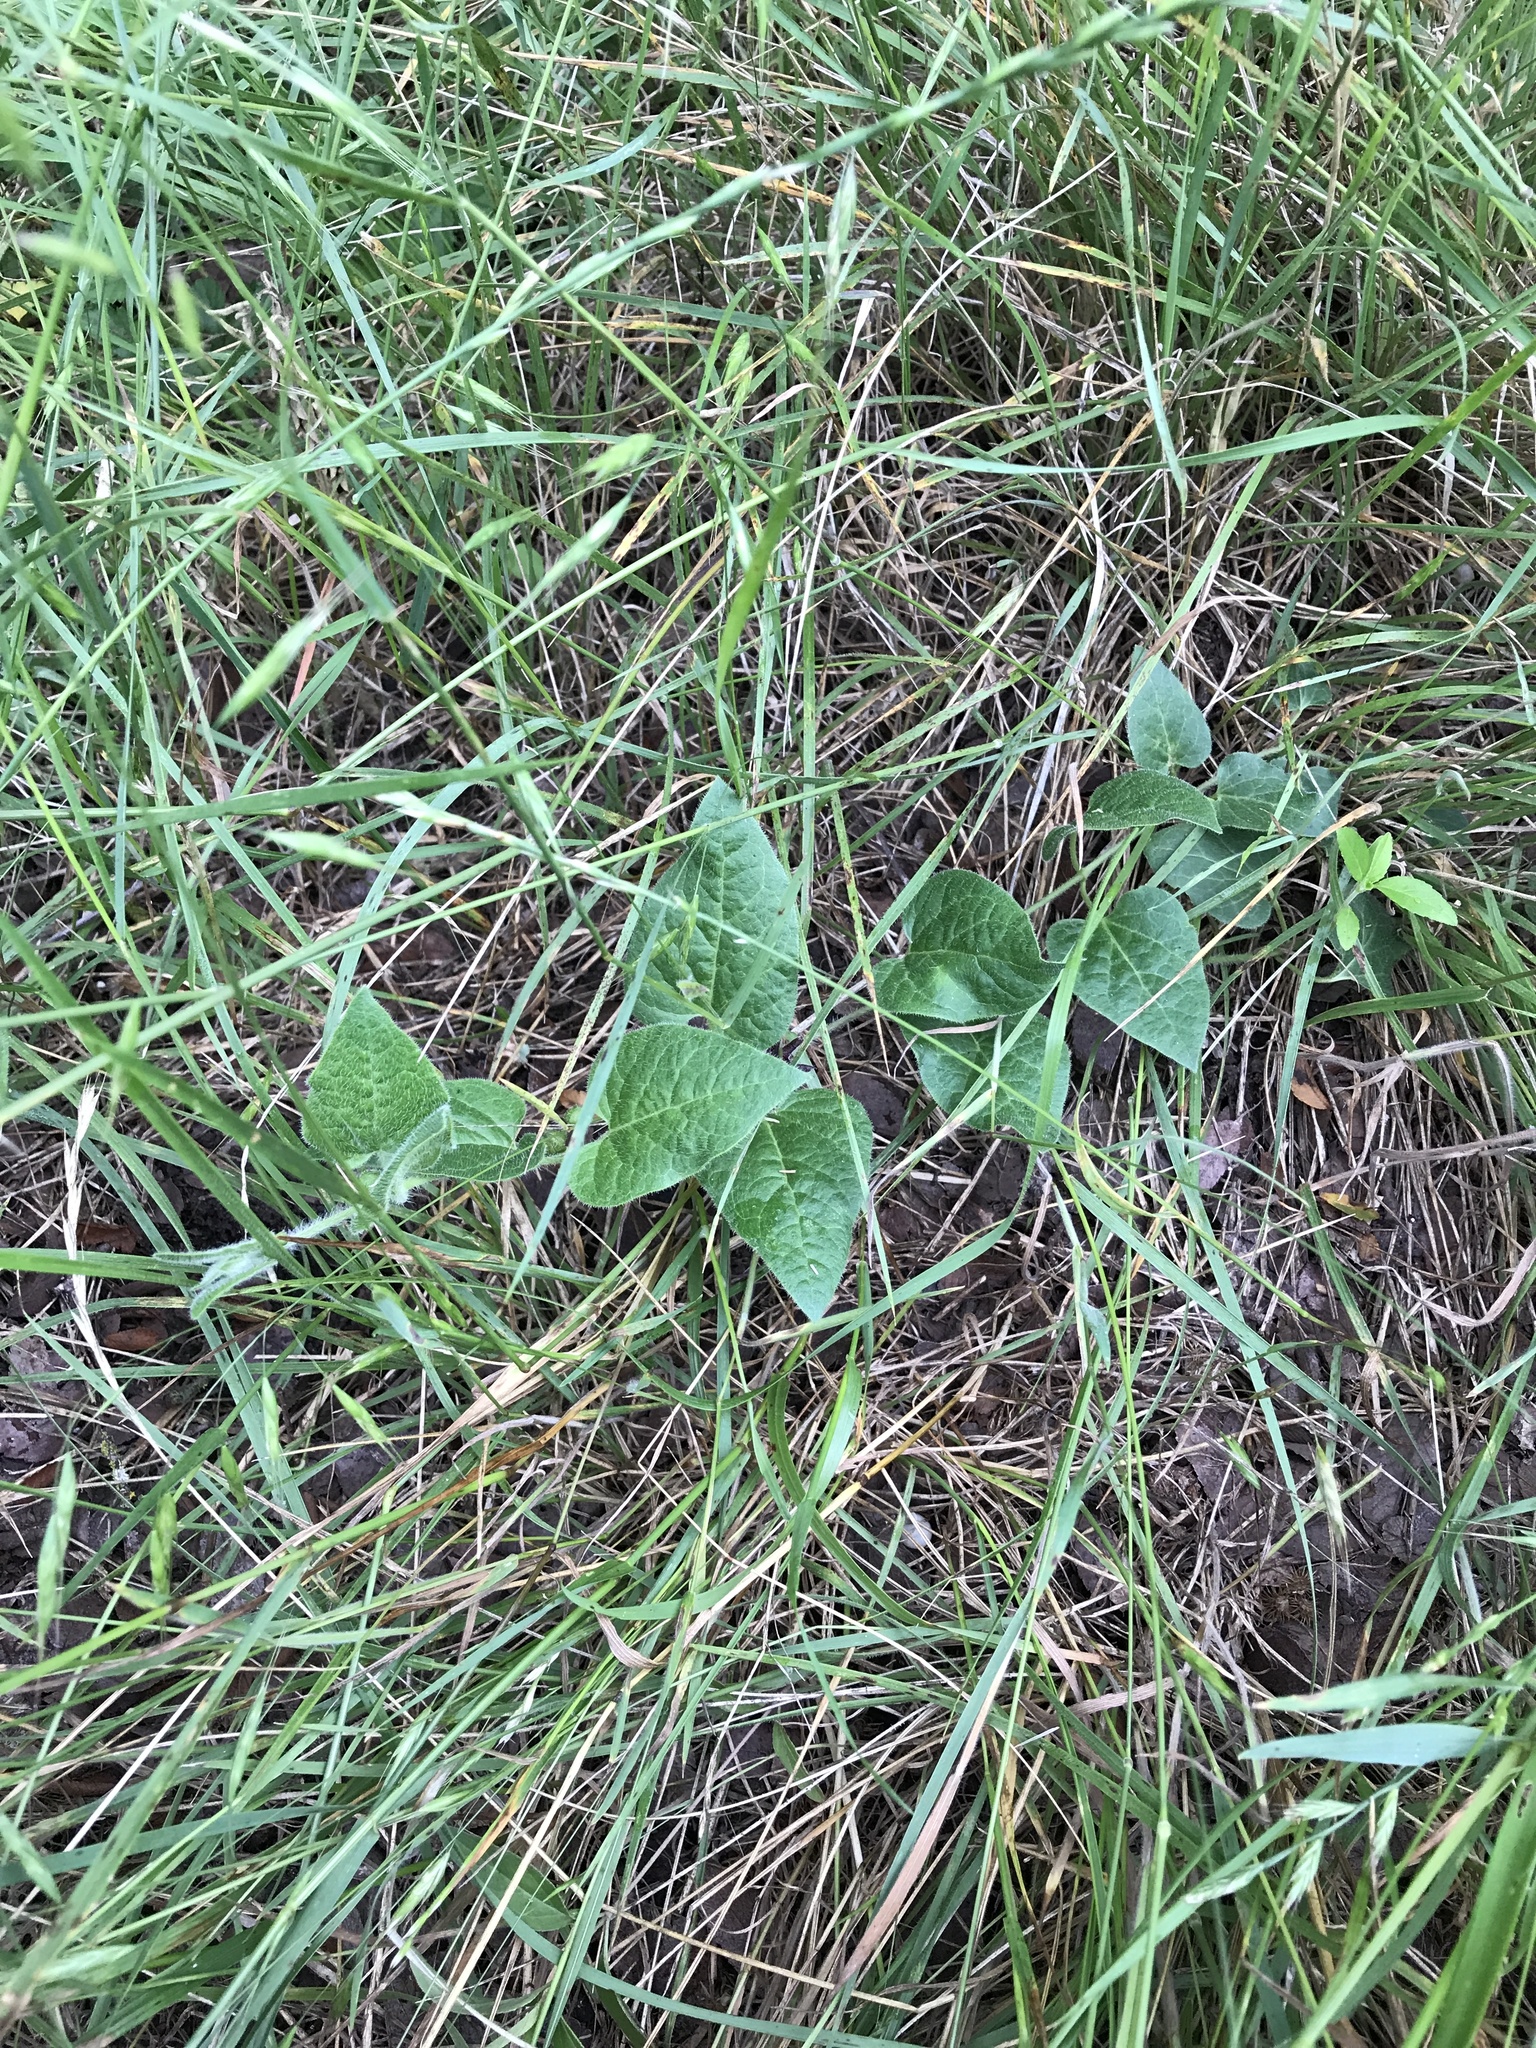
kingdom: Plantae
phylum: Tracheophyta
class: Magnoliopsida
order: Gentianales
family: Apocynaceae
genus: Chthamalia
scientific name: Chthamalia biflora
